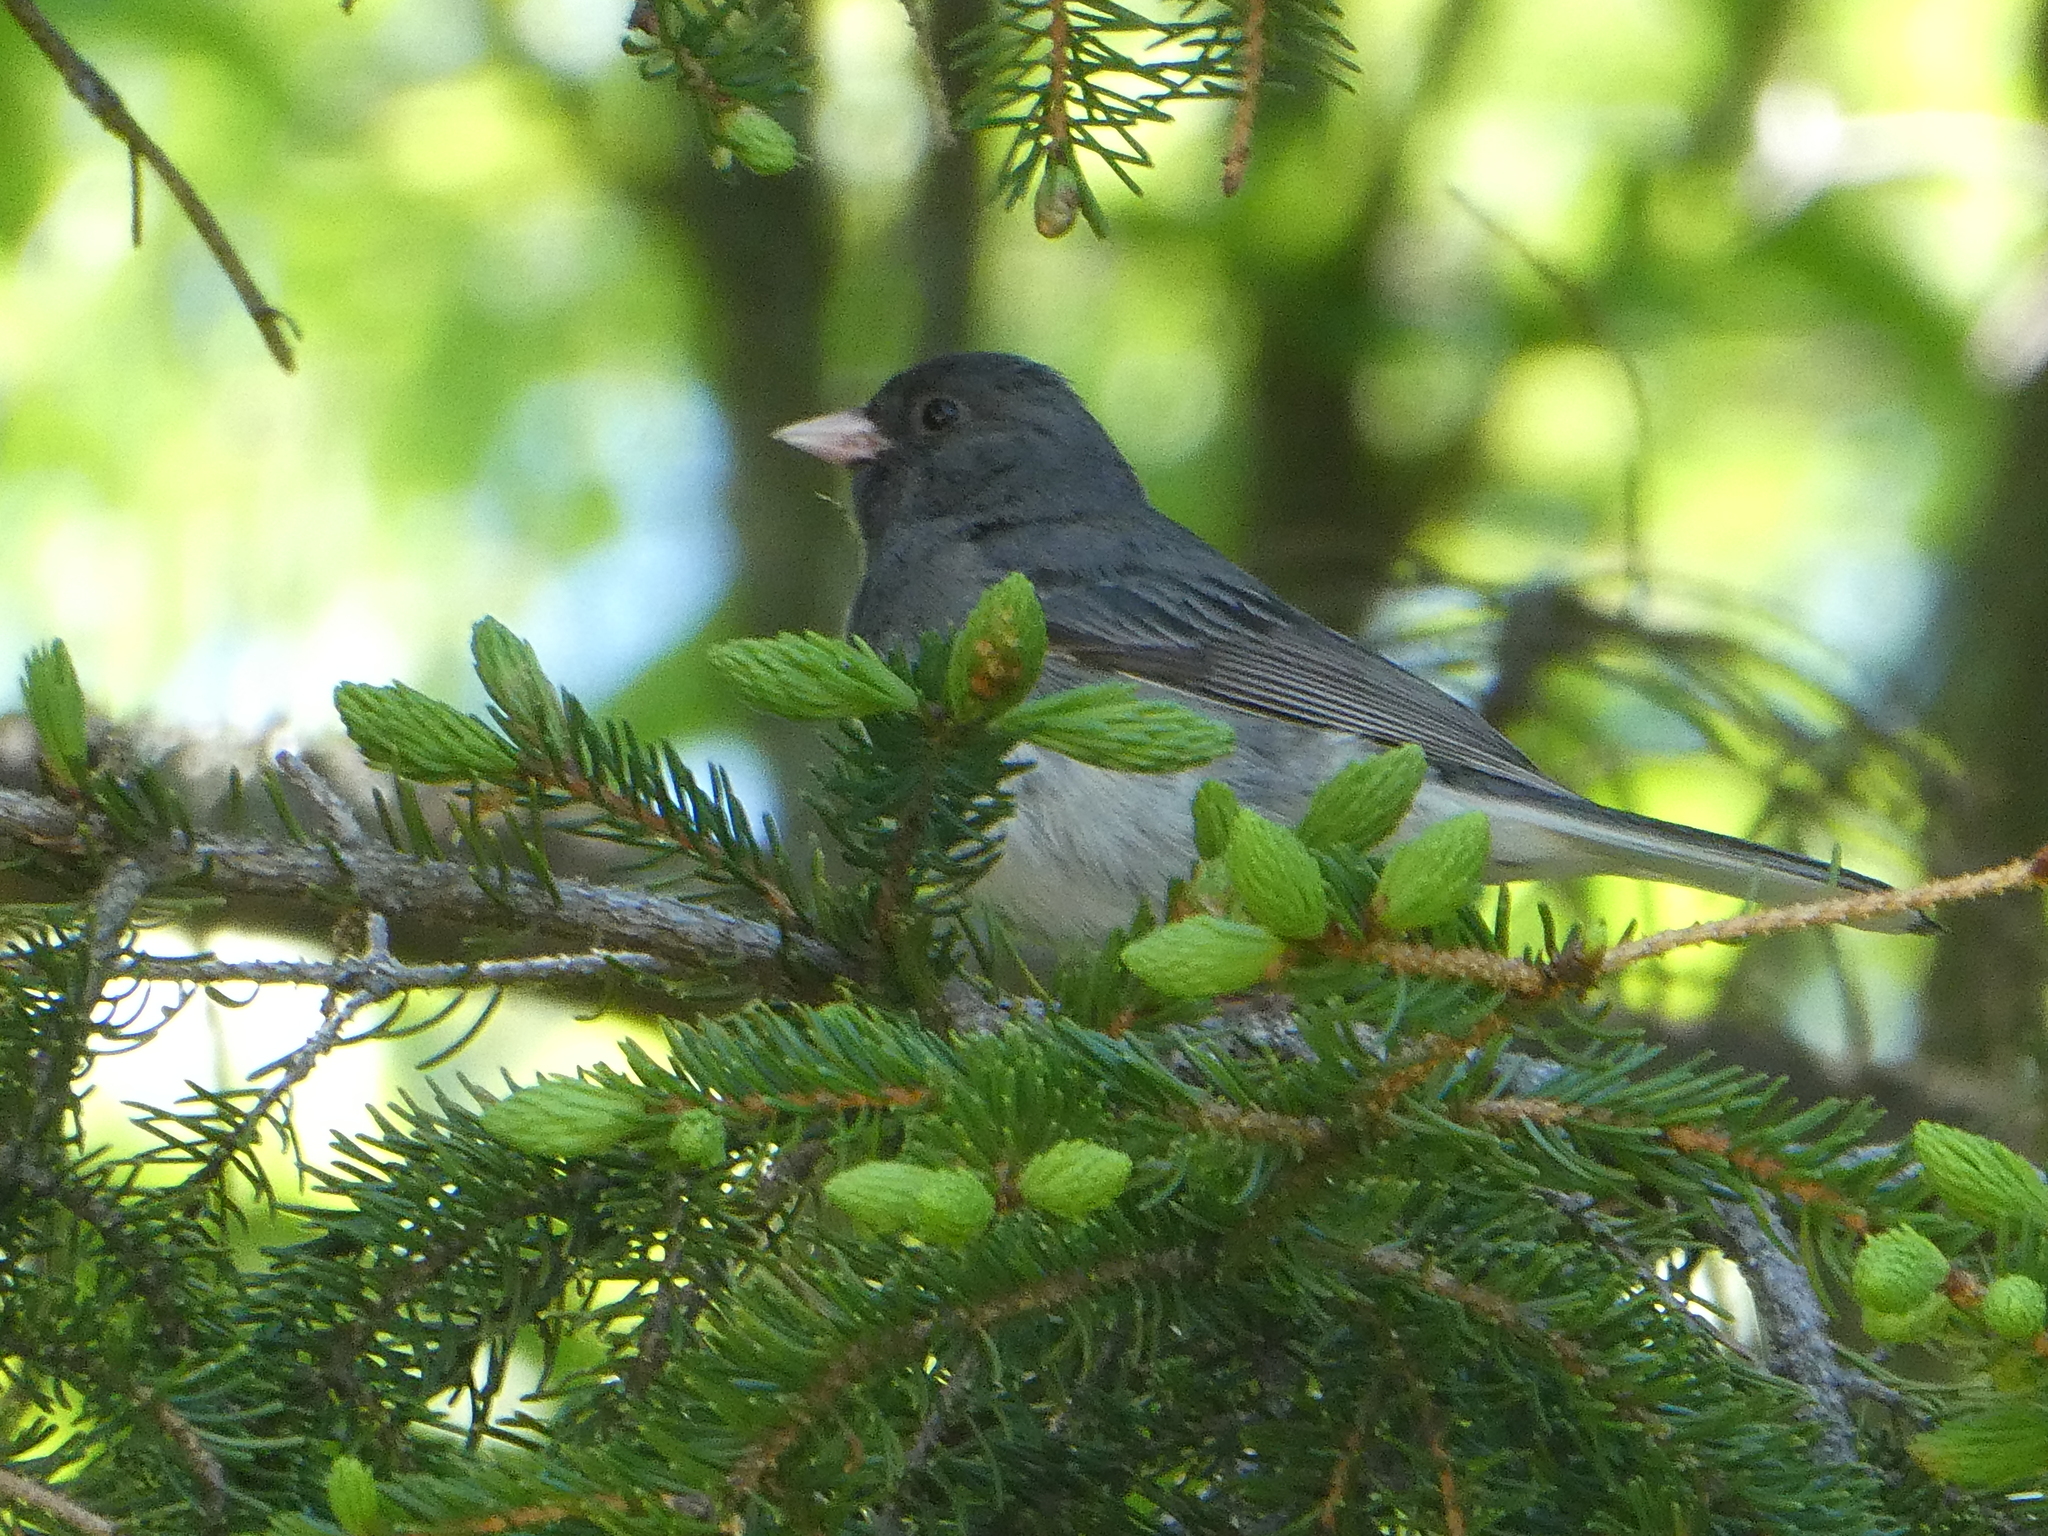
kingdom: Animalia
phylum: Chordata
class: Aves
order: Passeriformes
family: Passerellidae
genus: Junco
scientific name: Junco hyemalis
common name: Dark-eyed junco
